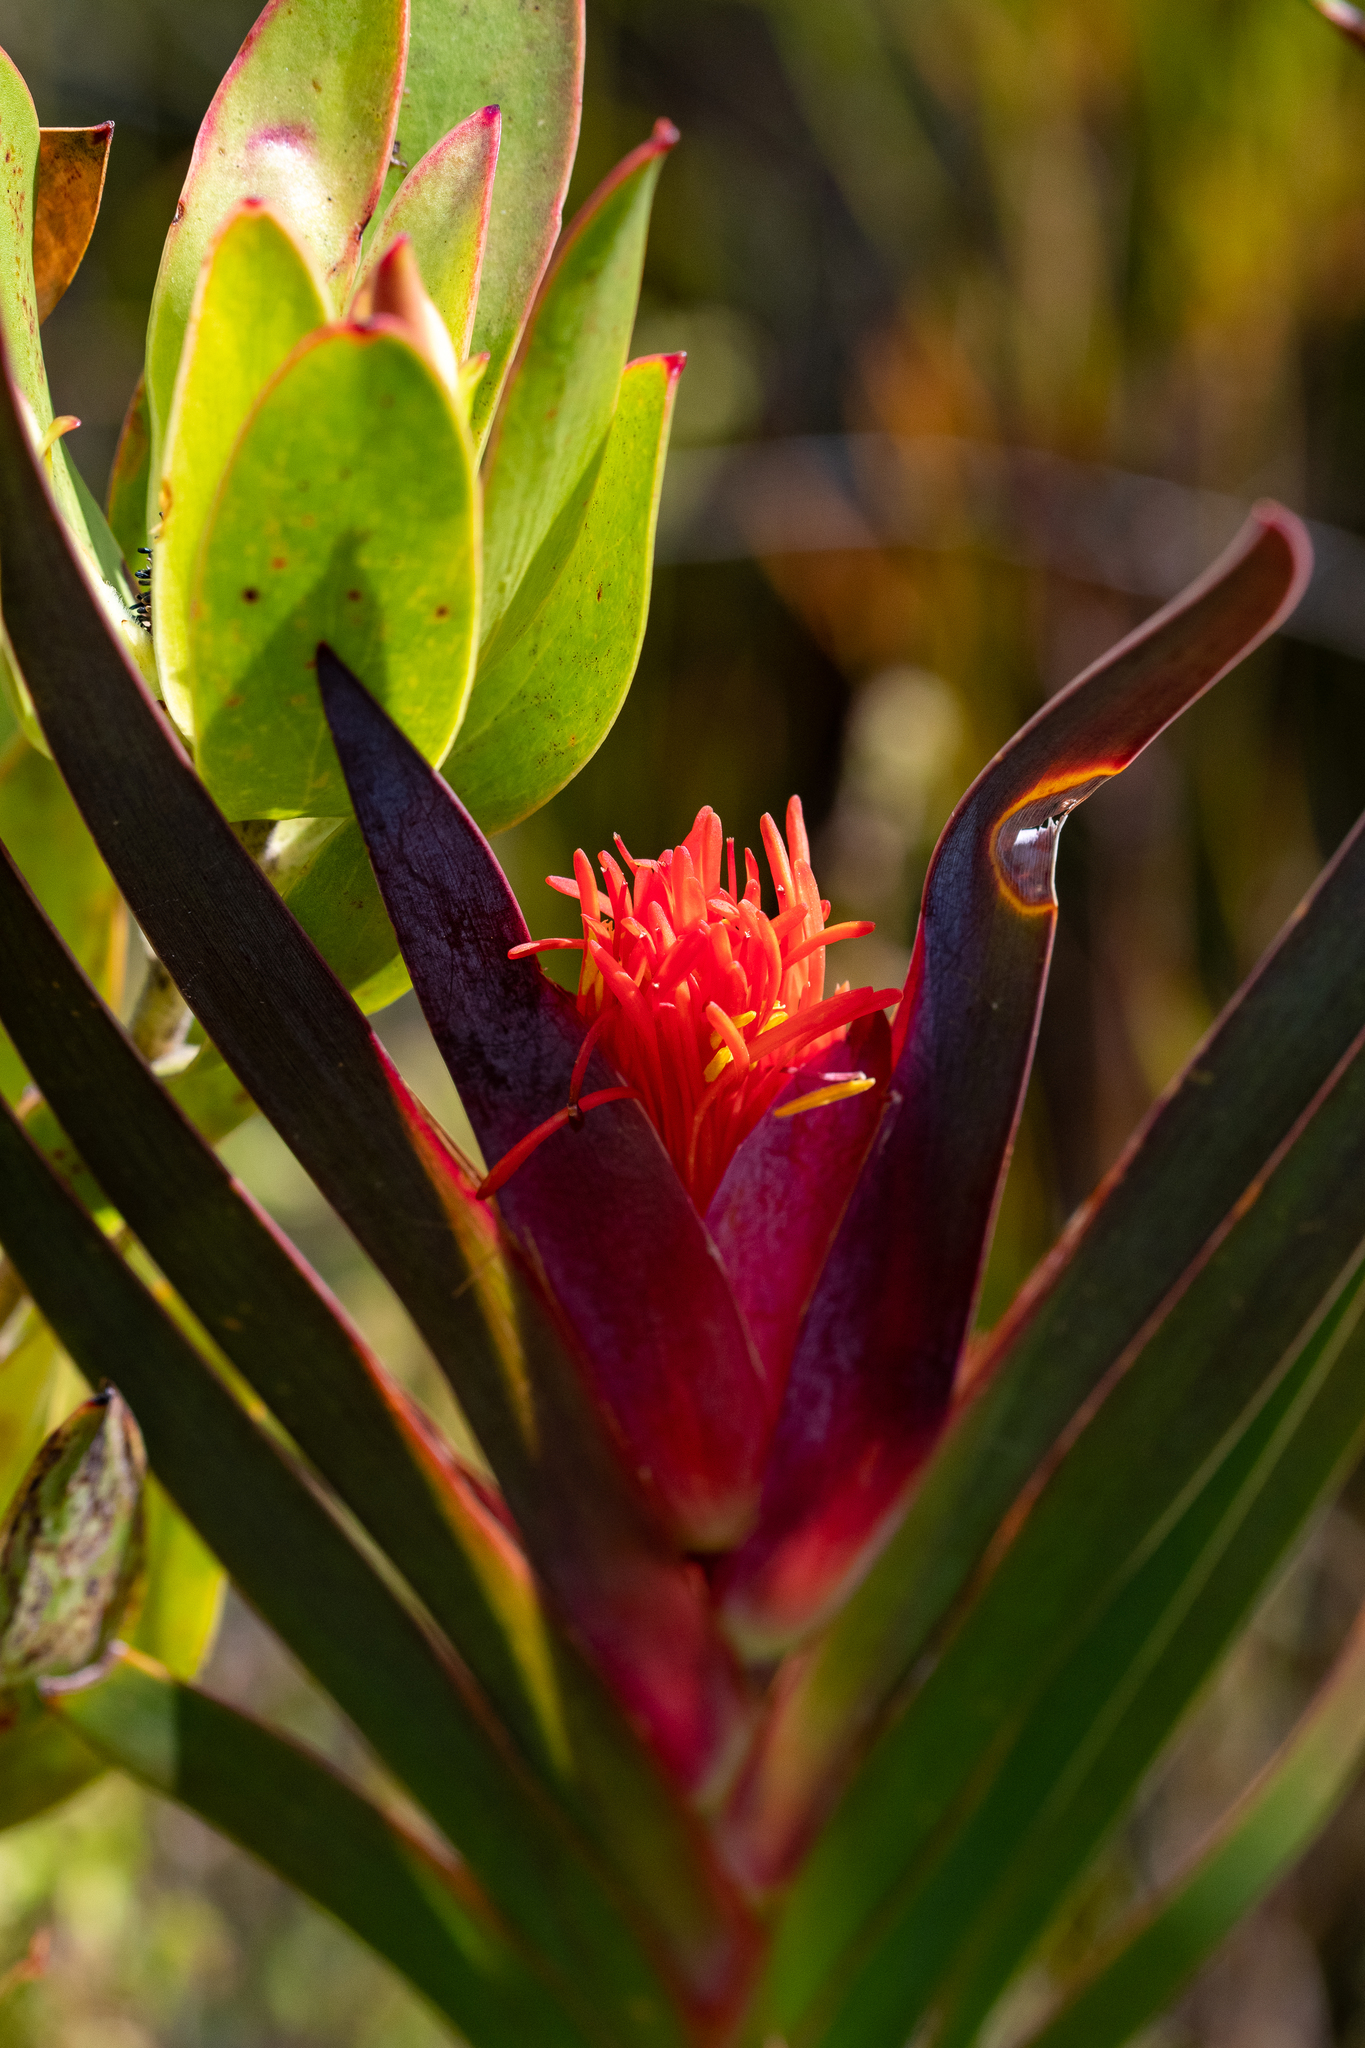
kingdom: Plantae
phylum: Tracheophyta
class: Liliopsida
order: Asparagales
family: Iridaceae
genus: Klattia
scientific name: Klattia stokoei
